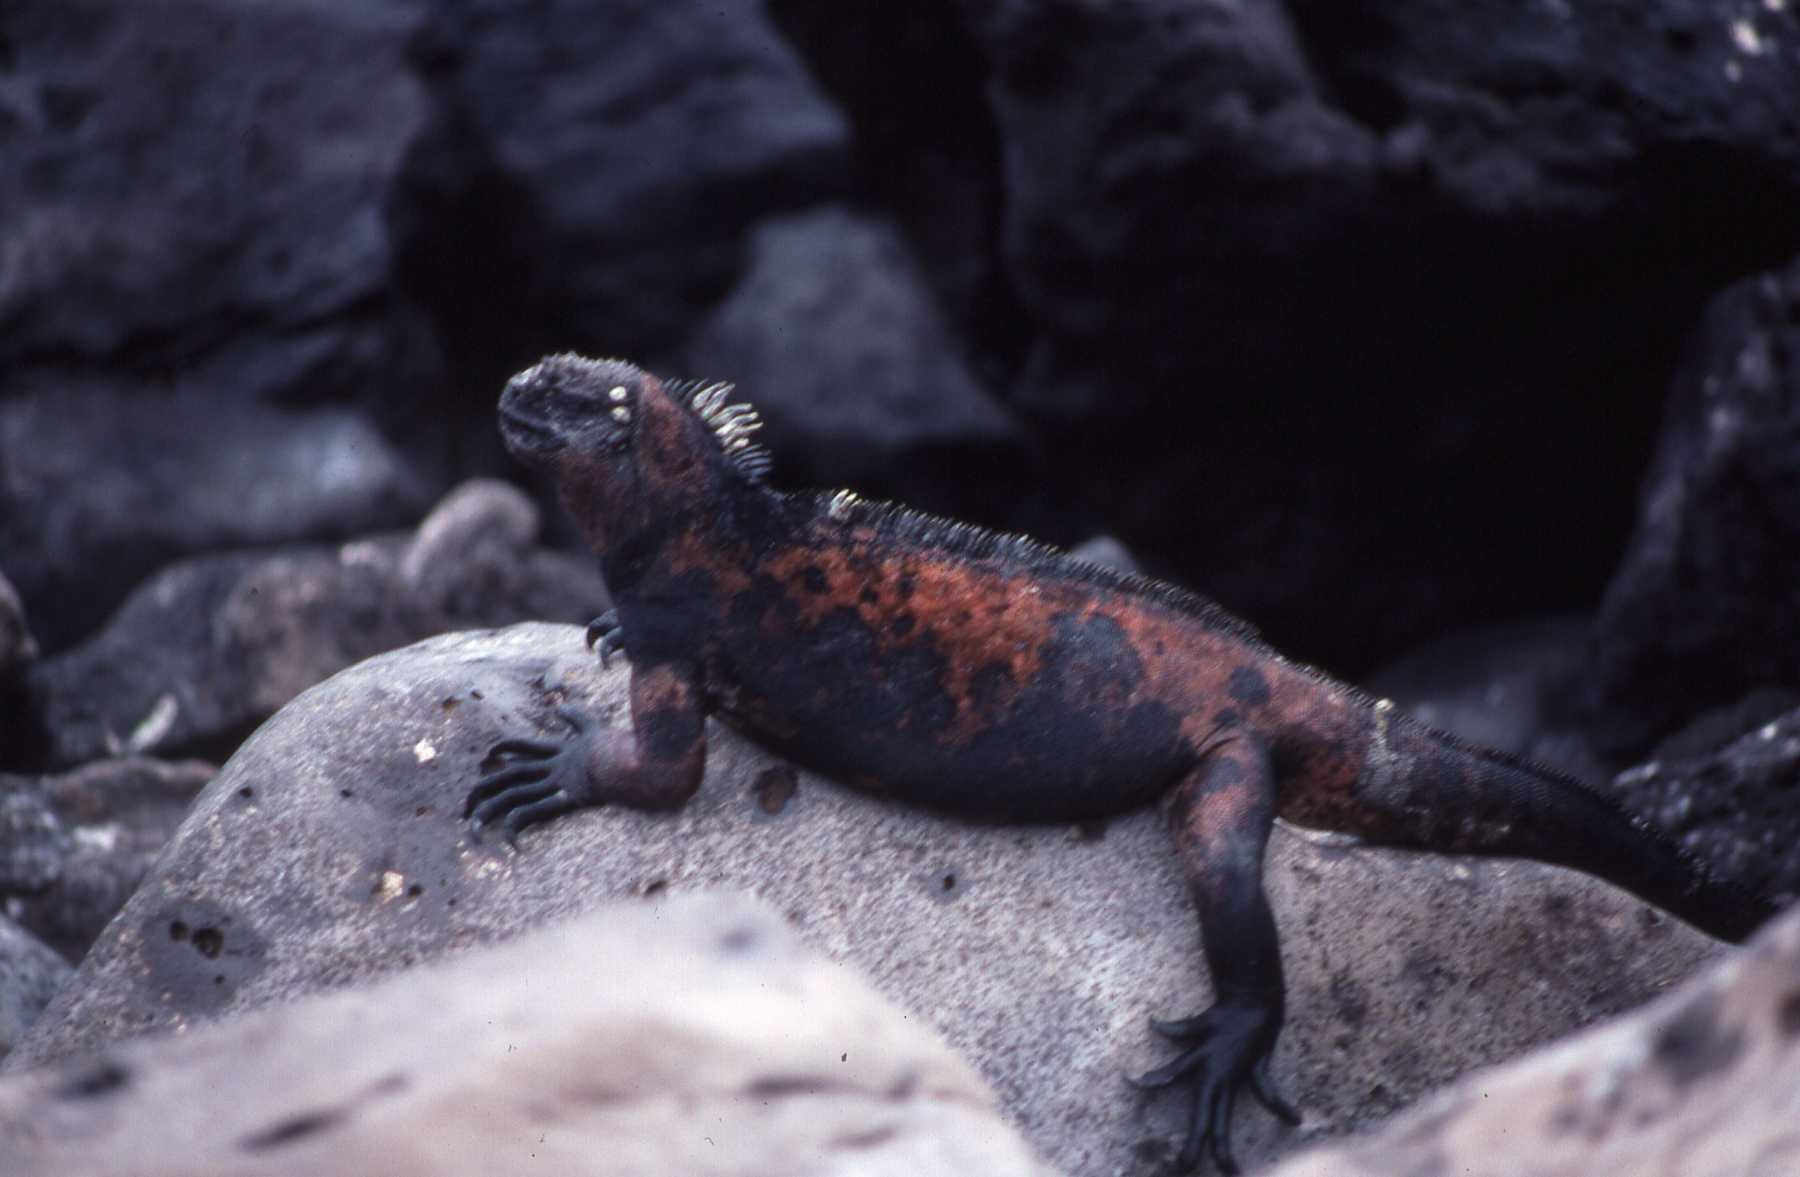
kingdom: Animalia
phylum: Chordata
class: Squamata
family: Iguanidae
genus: Amblyrhynchus
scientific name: Amblyrhynchus cristatus
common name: Marine iguana
